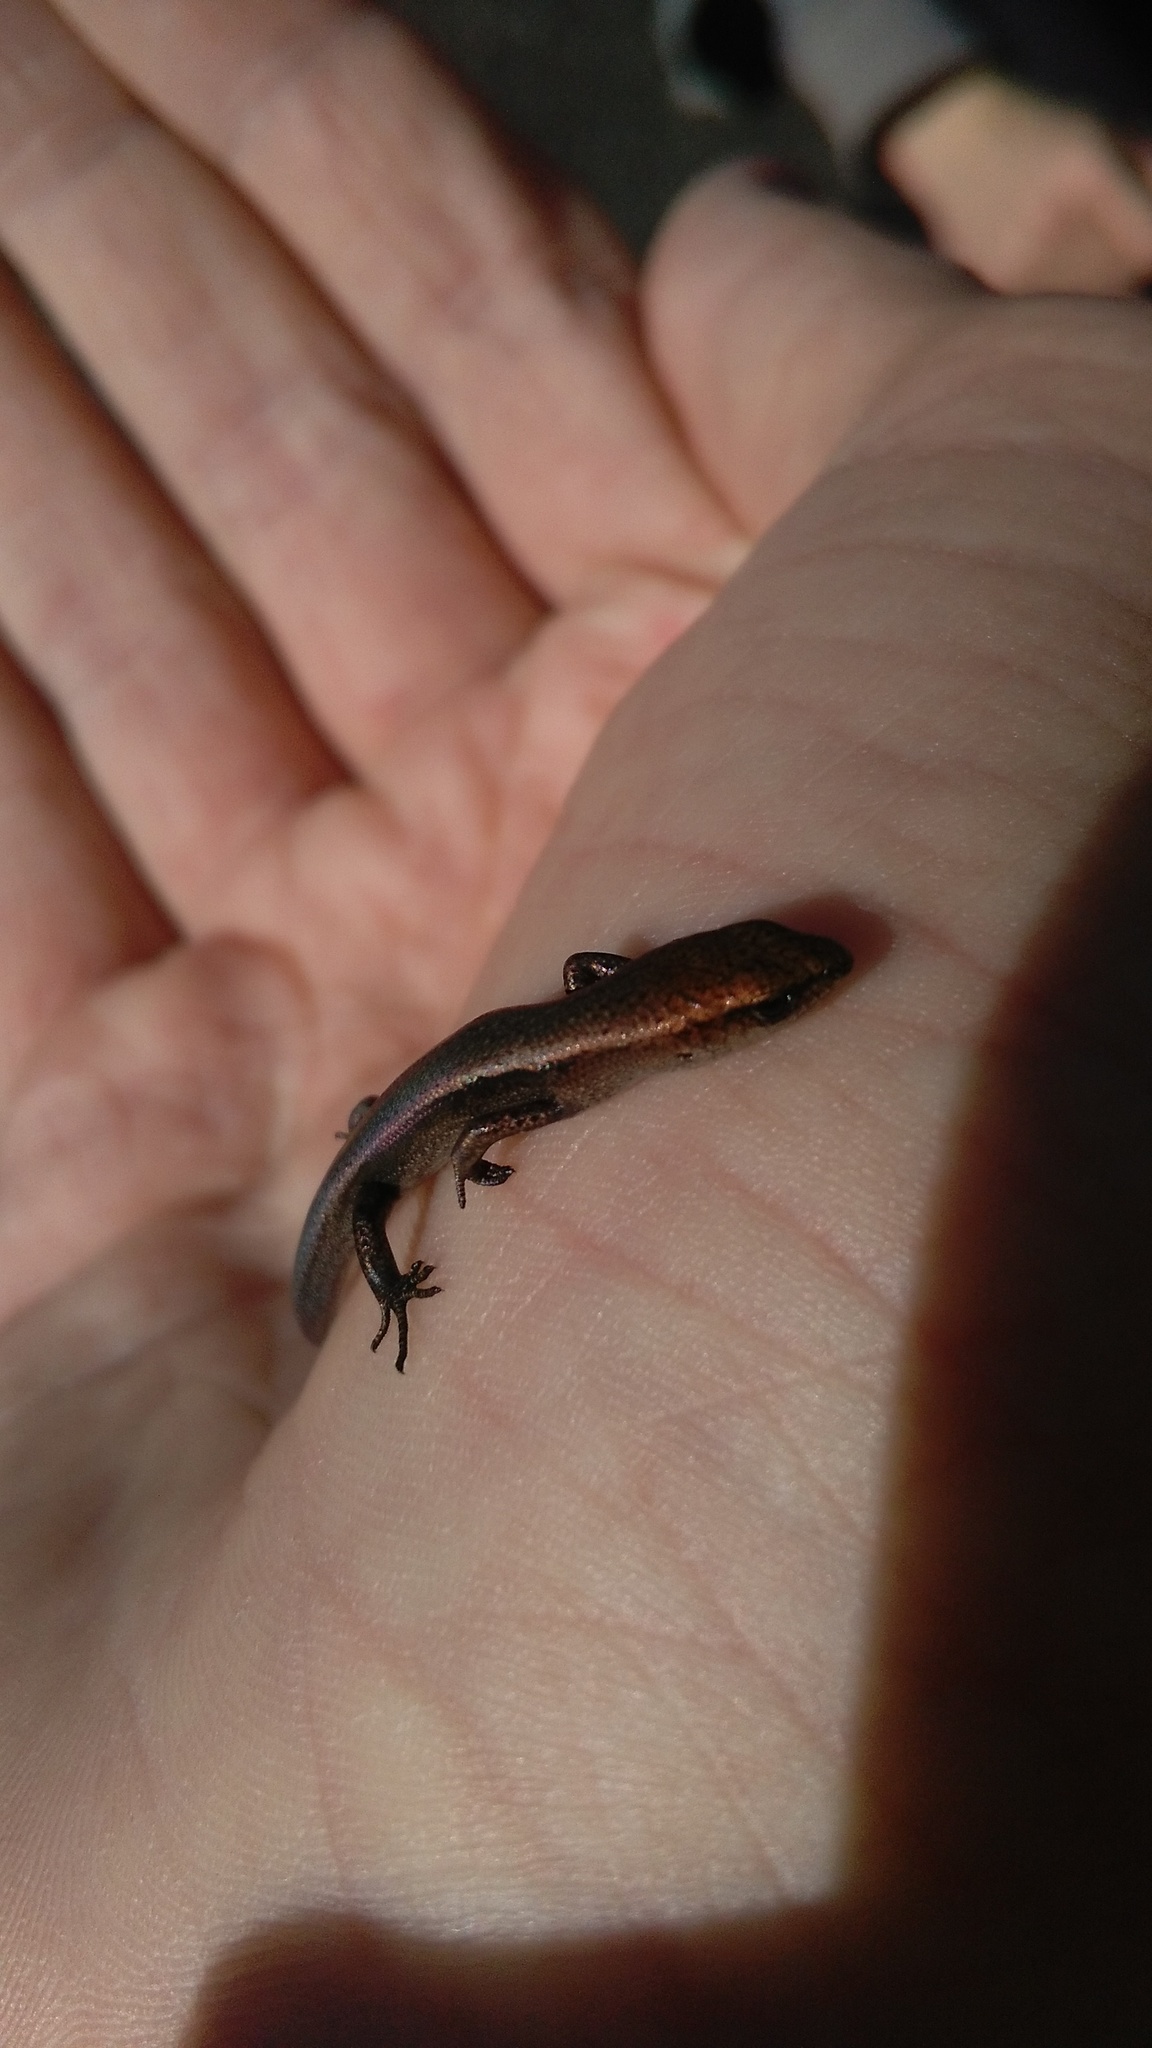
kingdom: Animalia
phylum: Chordata
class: Squamata
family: Scincidae
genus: Lampropholis
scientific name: Lampropholis delicata
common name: Plague skink
